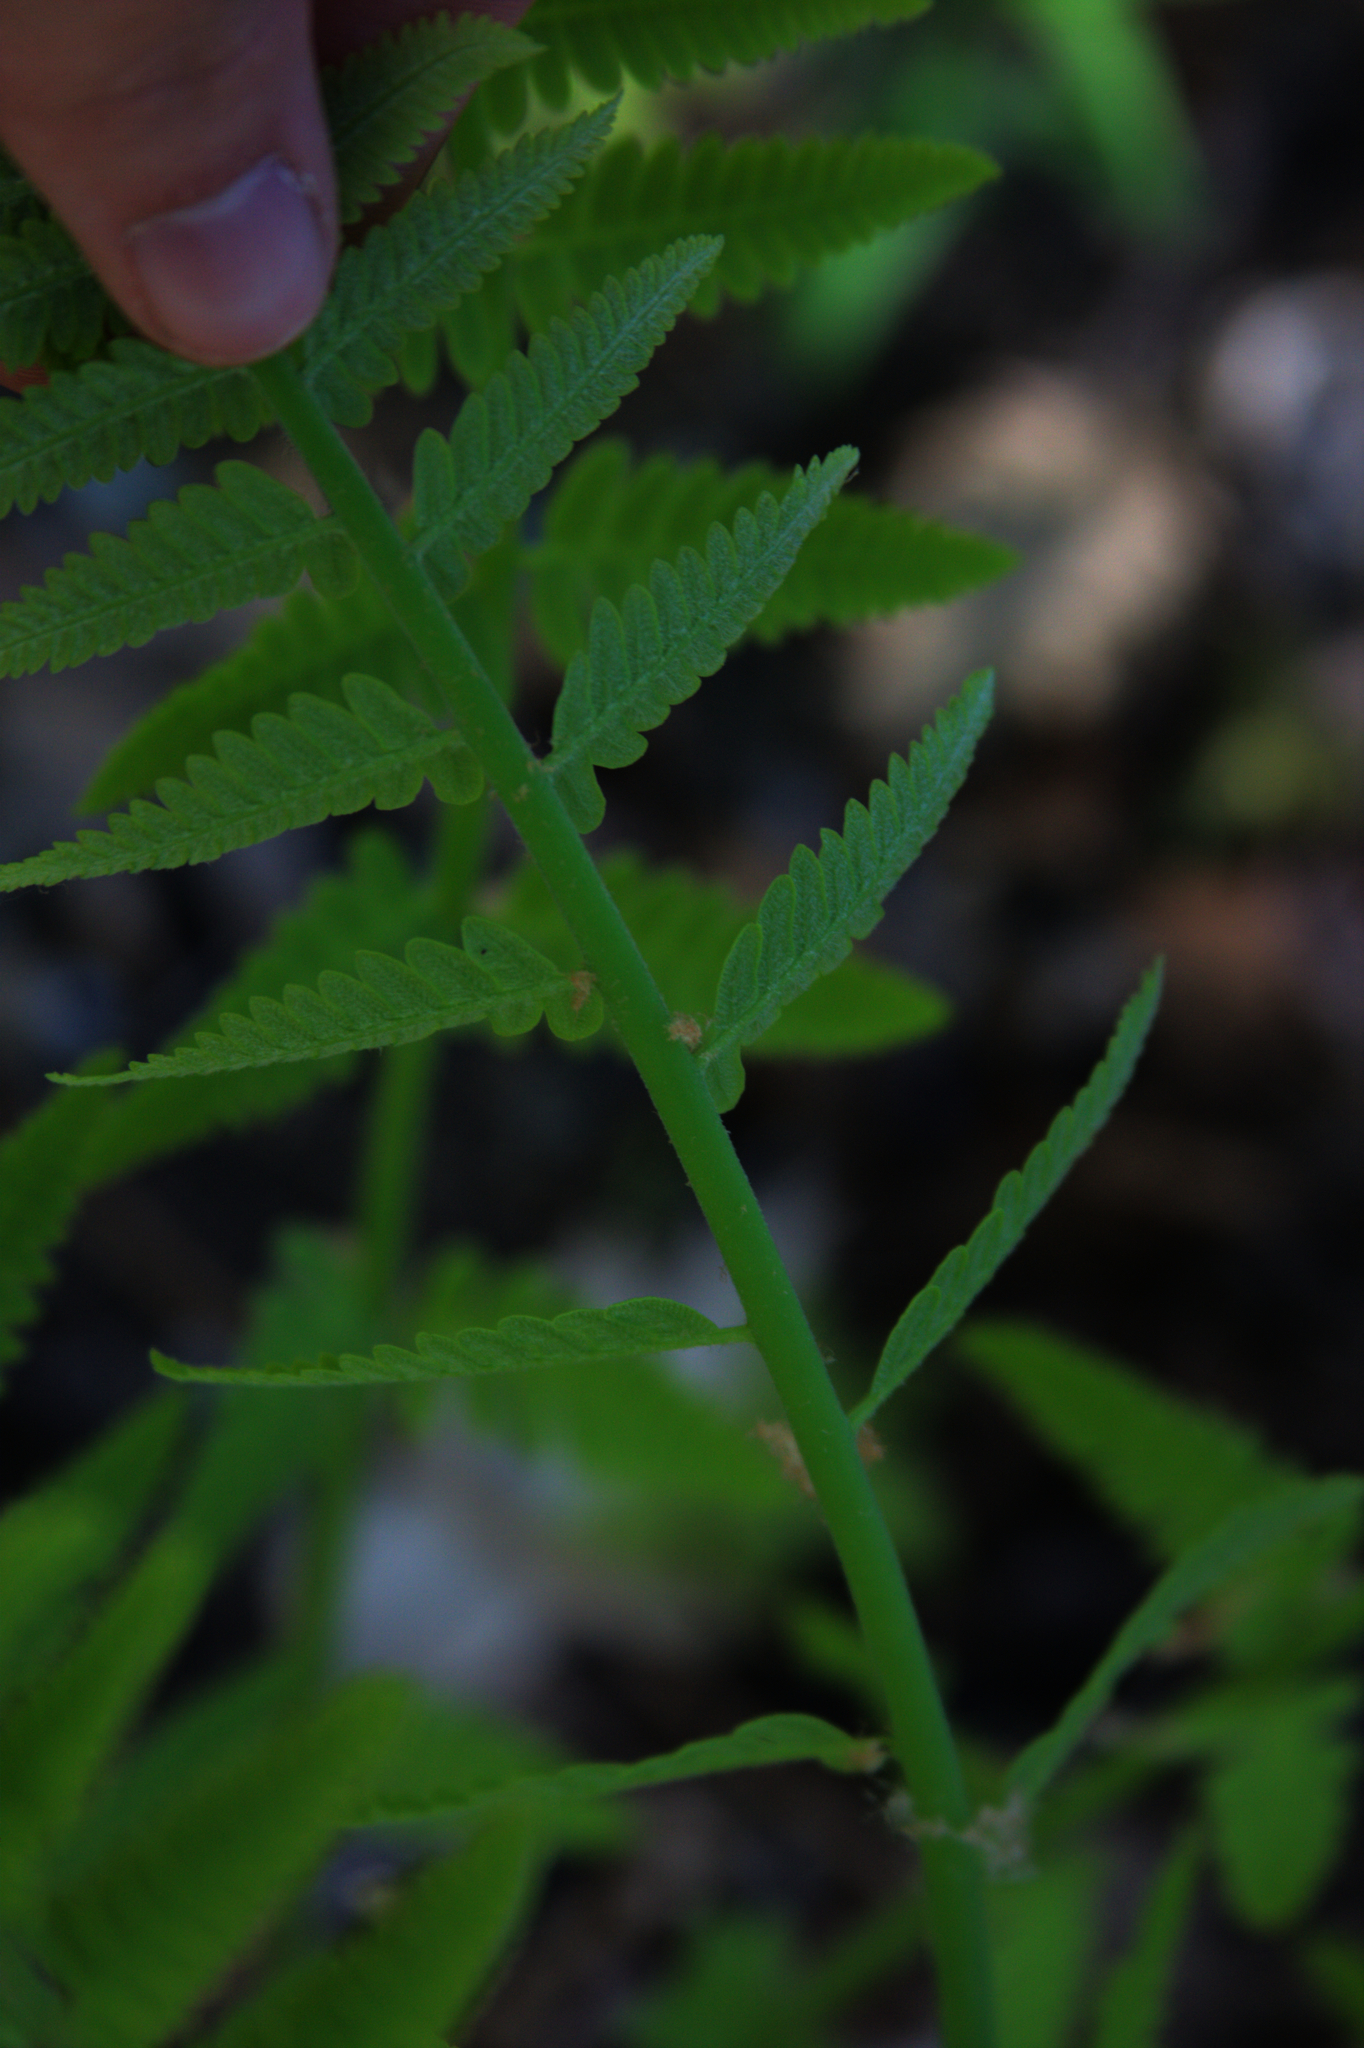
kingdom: Plantae
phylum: Tracheophyta
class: Polypodiopsida
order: Osmundales
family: Osmundaceae
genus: Claytosmunda
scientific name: Claytosmunda claytoniana
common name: Clayton's fern
